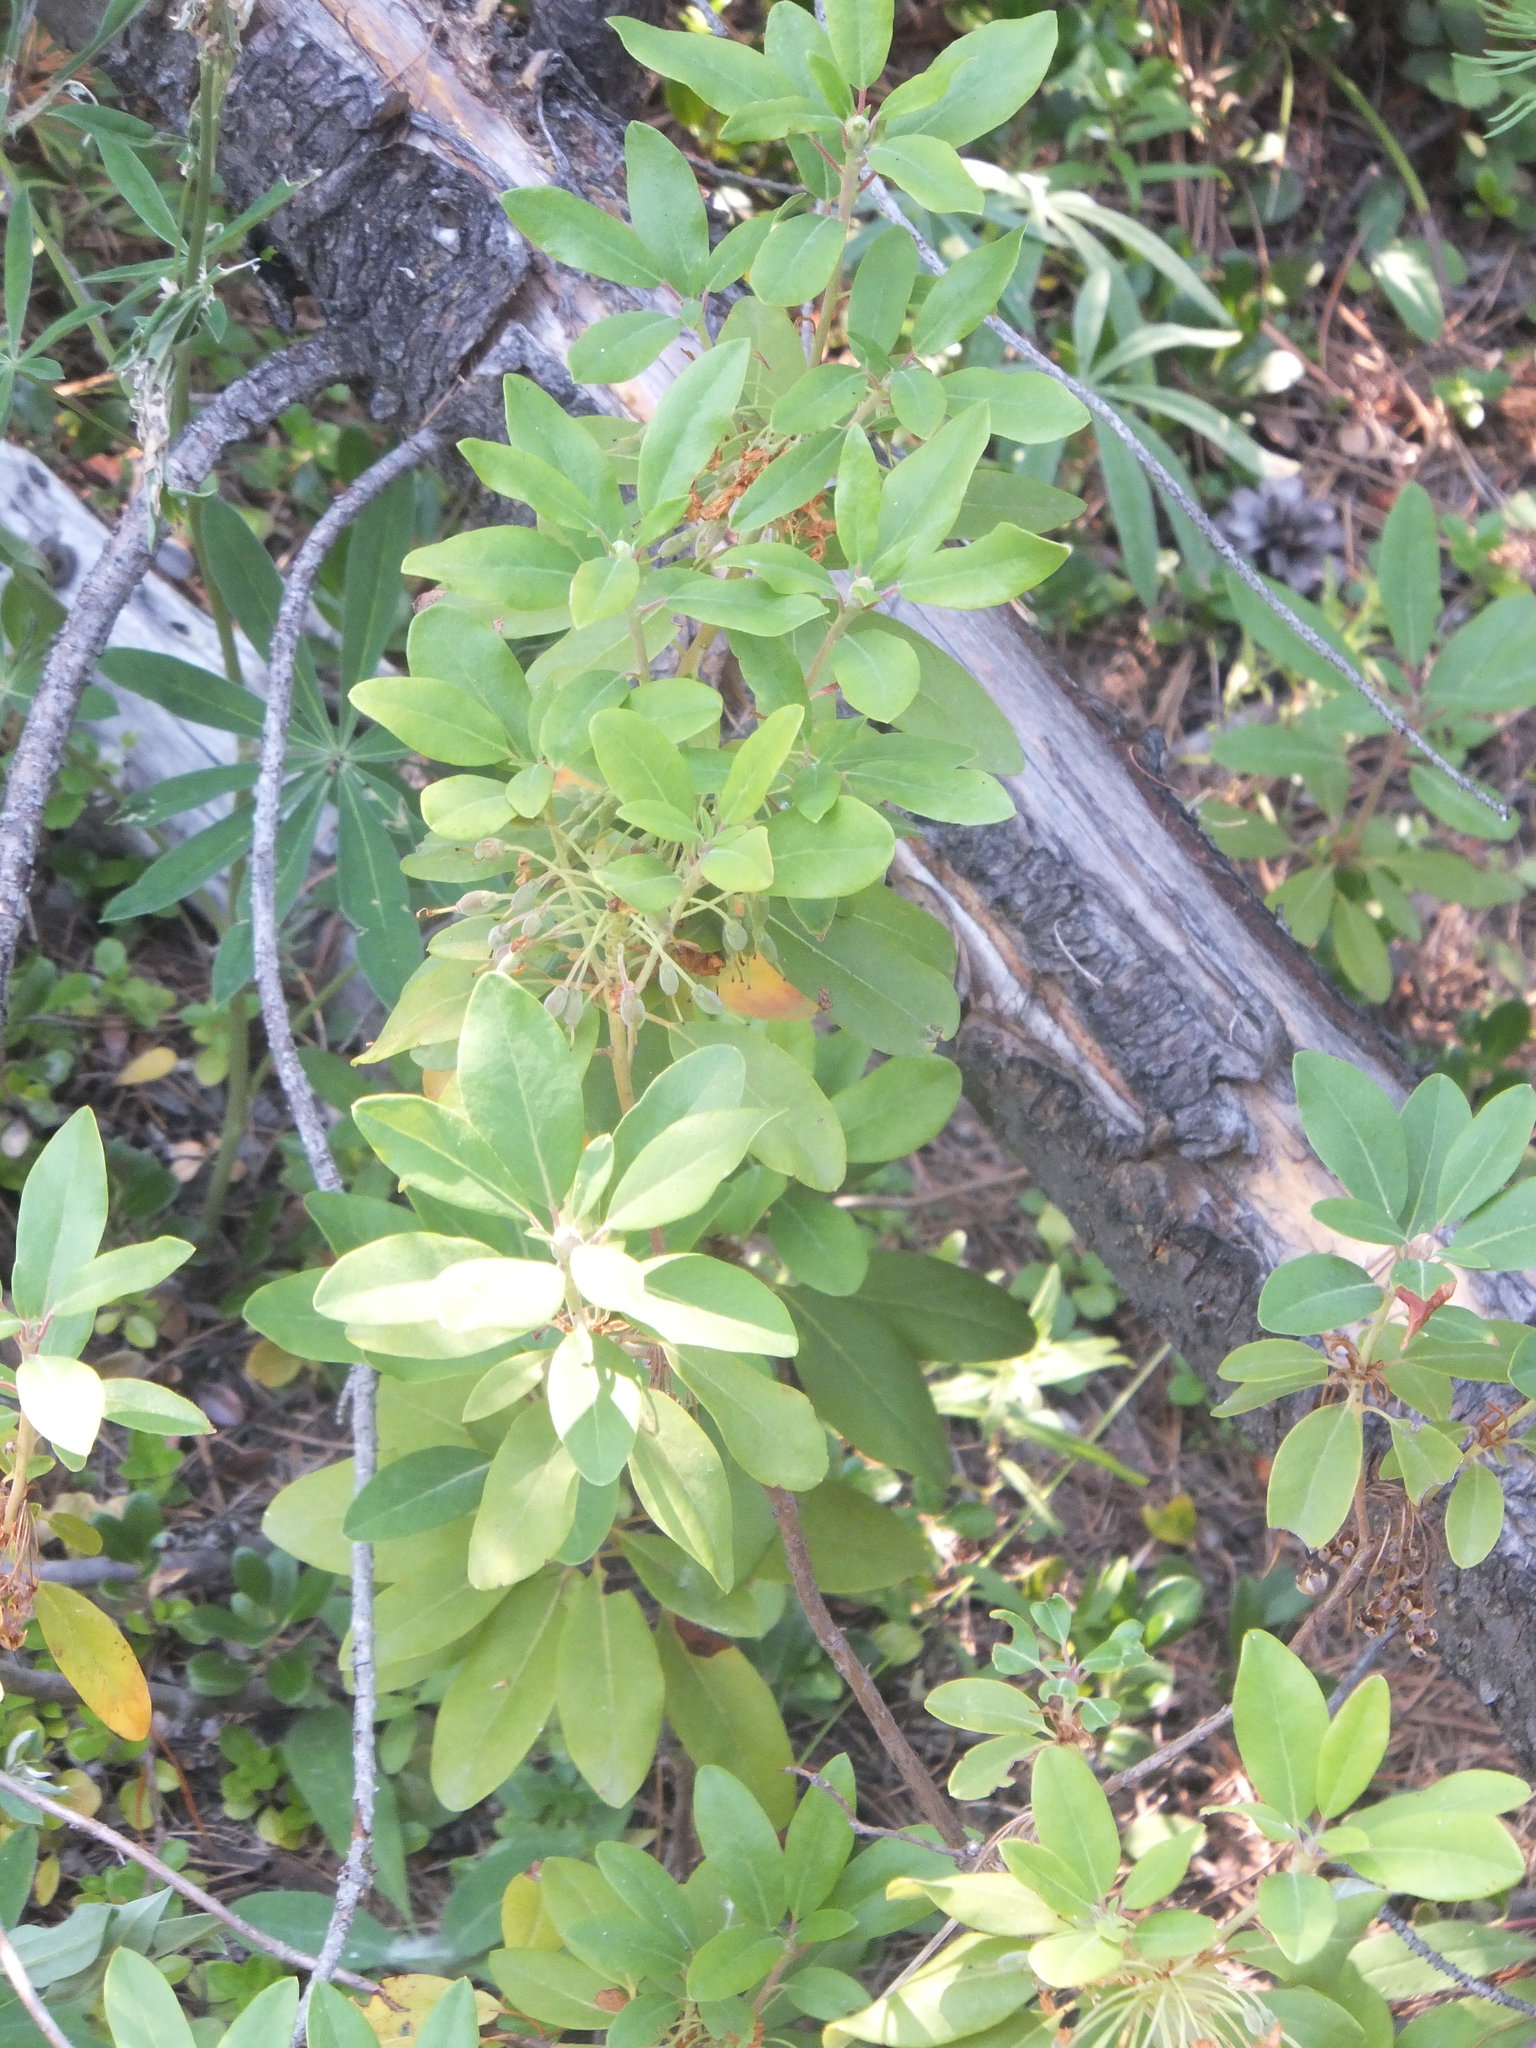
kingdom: Plantae
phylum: Tracheophyta
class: Magnoliopsida
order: Ericales
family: Ericaceae
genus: Rhododendron
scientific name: Rhododendron columbianum
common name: Western labrador tea
